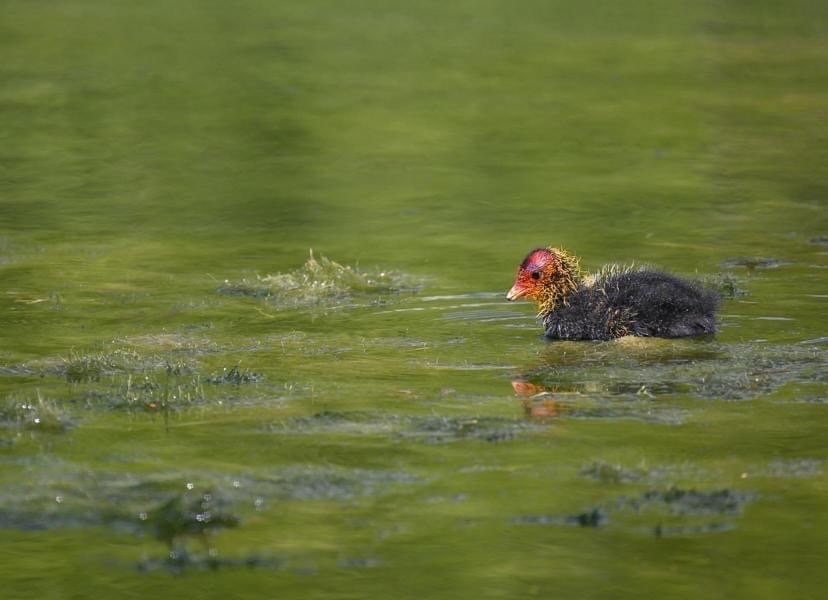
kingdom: Animalia
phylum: Chordata
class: Aves
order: Gruiformes
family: Rallidae
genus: Fulica
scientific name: Fulica atra
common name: Eurasian coot
